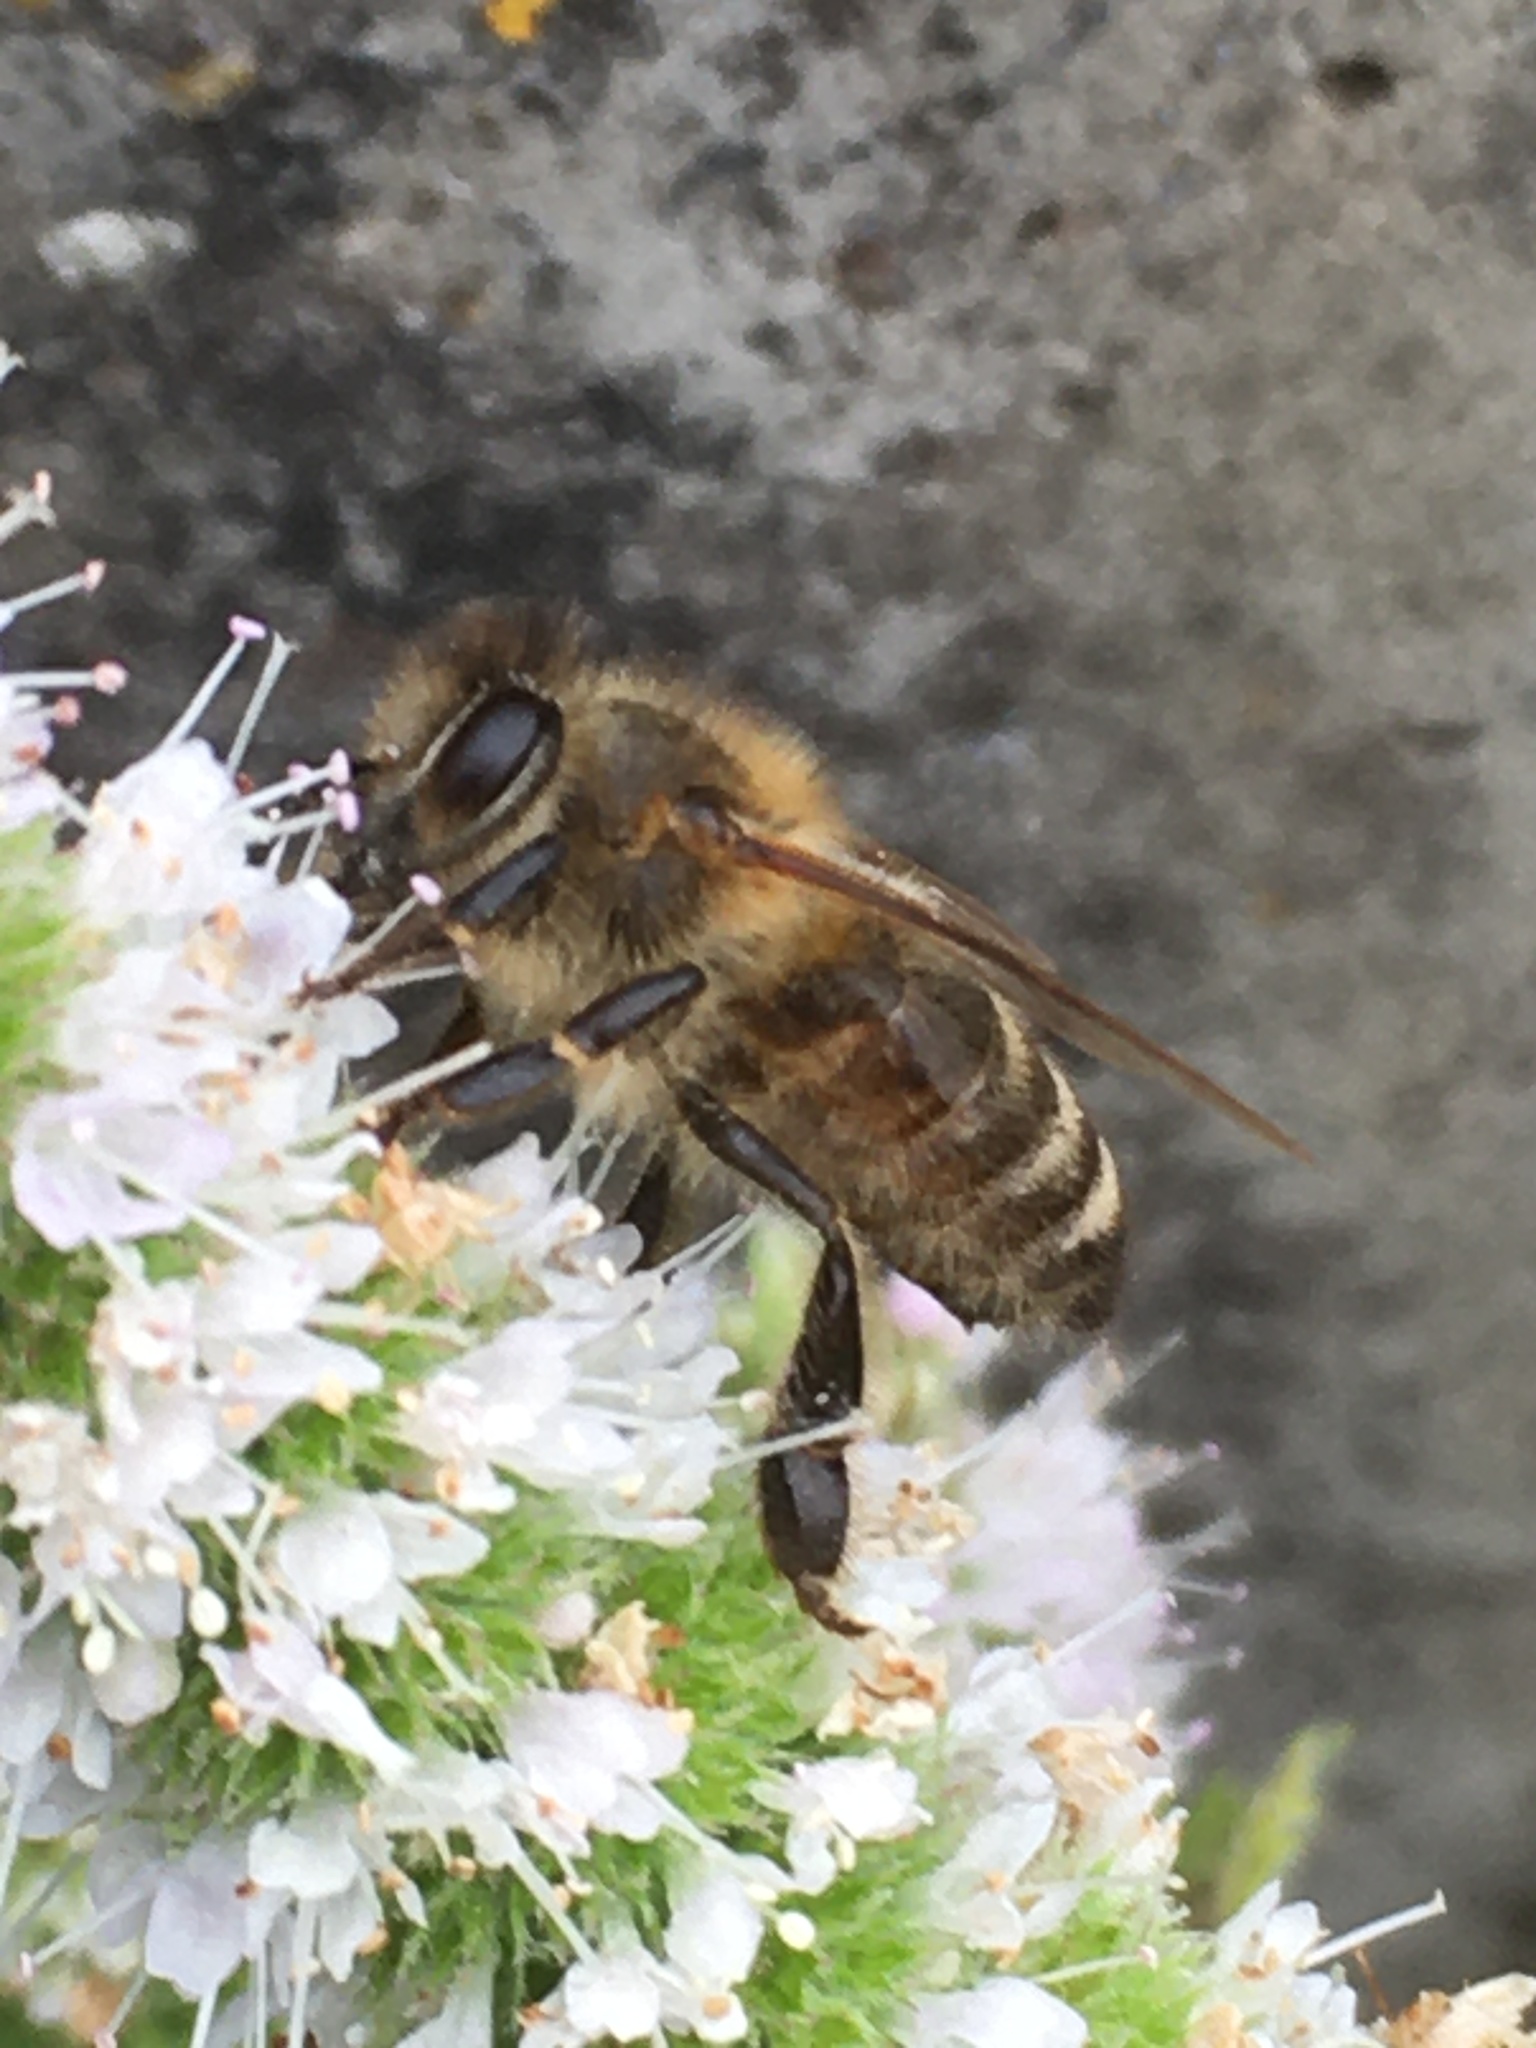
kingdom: Animalia
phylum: Arthropoda
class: Insecta
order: Hymenoptera
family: Apidae
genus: Apis
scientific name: Apis mellifera
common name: Honey bee
